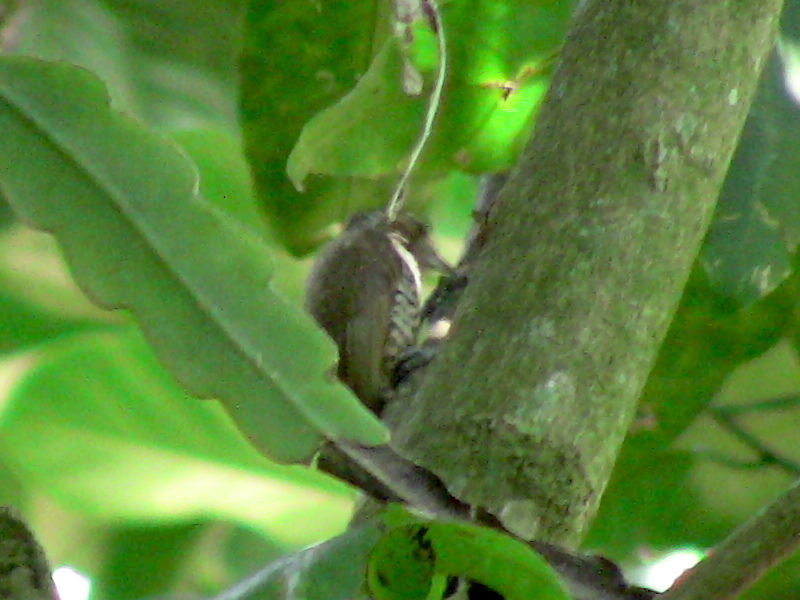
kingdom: Animalia
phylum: Chordata
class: Aves
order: Piciformes
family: Picidae
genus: Picumnus
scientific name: Picumnus cirratus
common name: White-barred piculet
